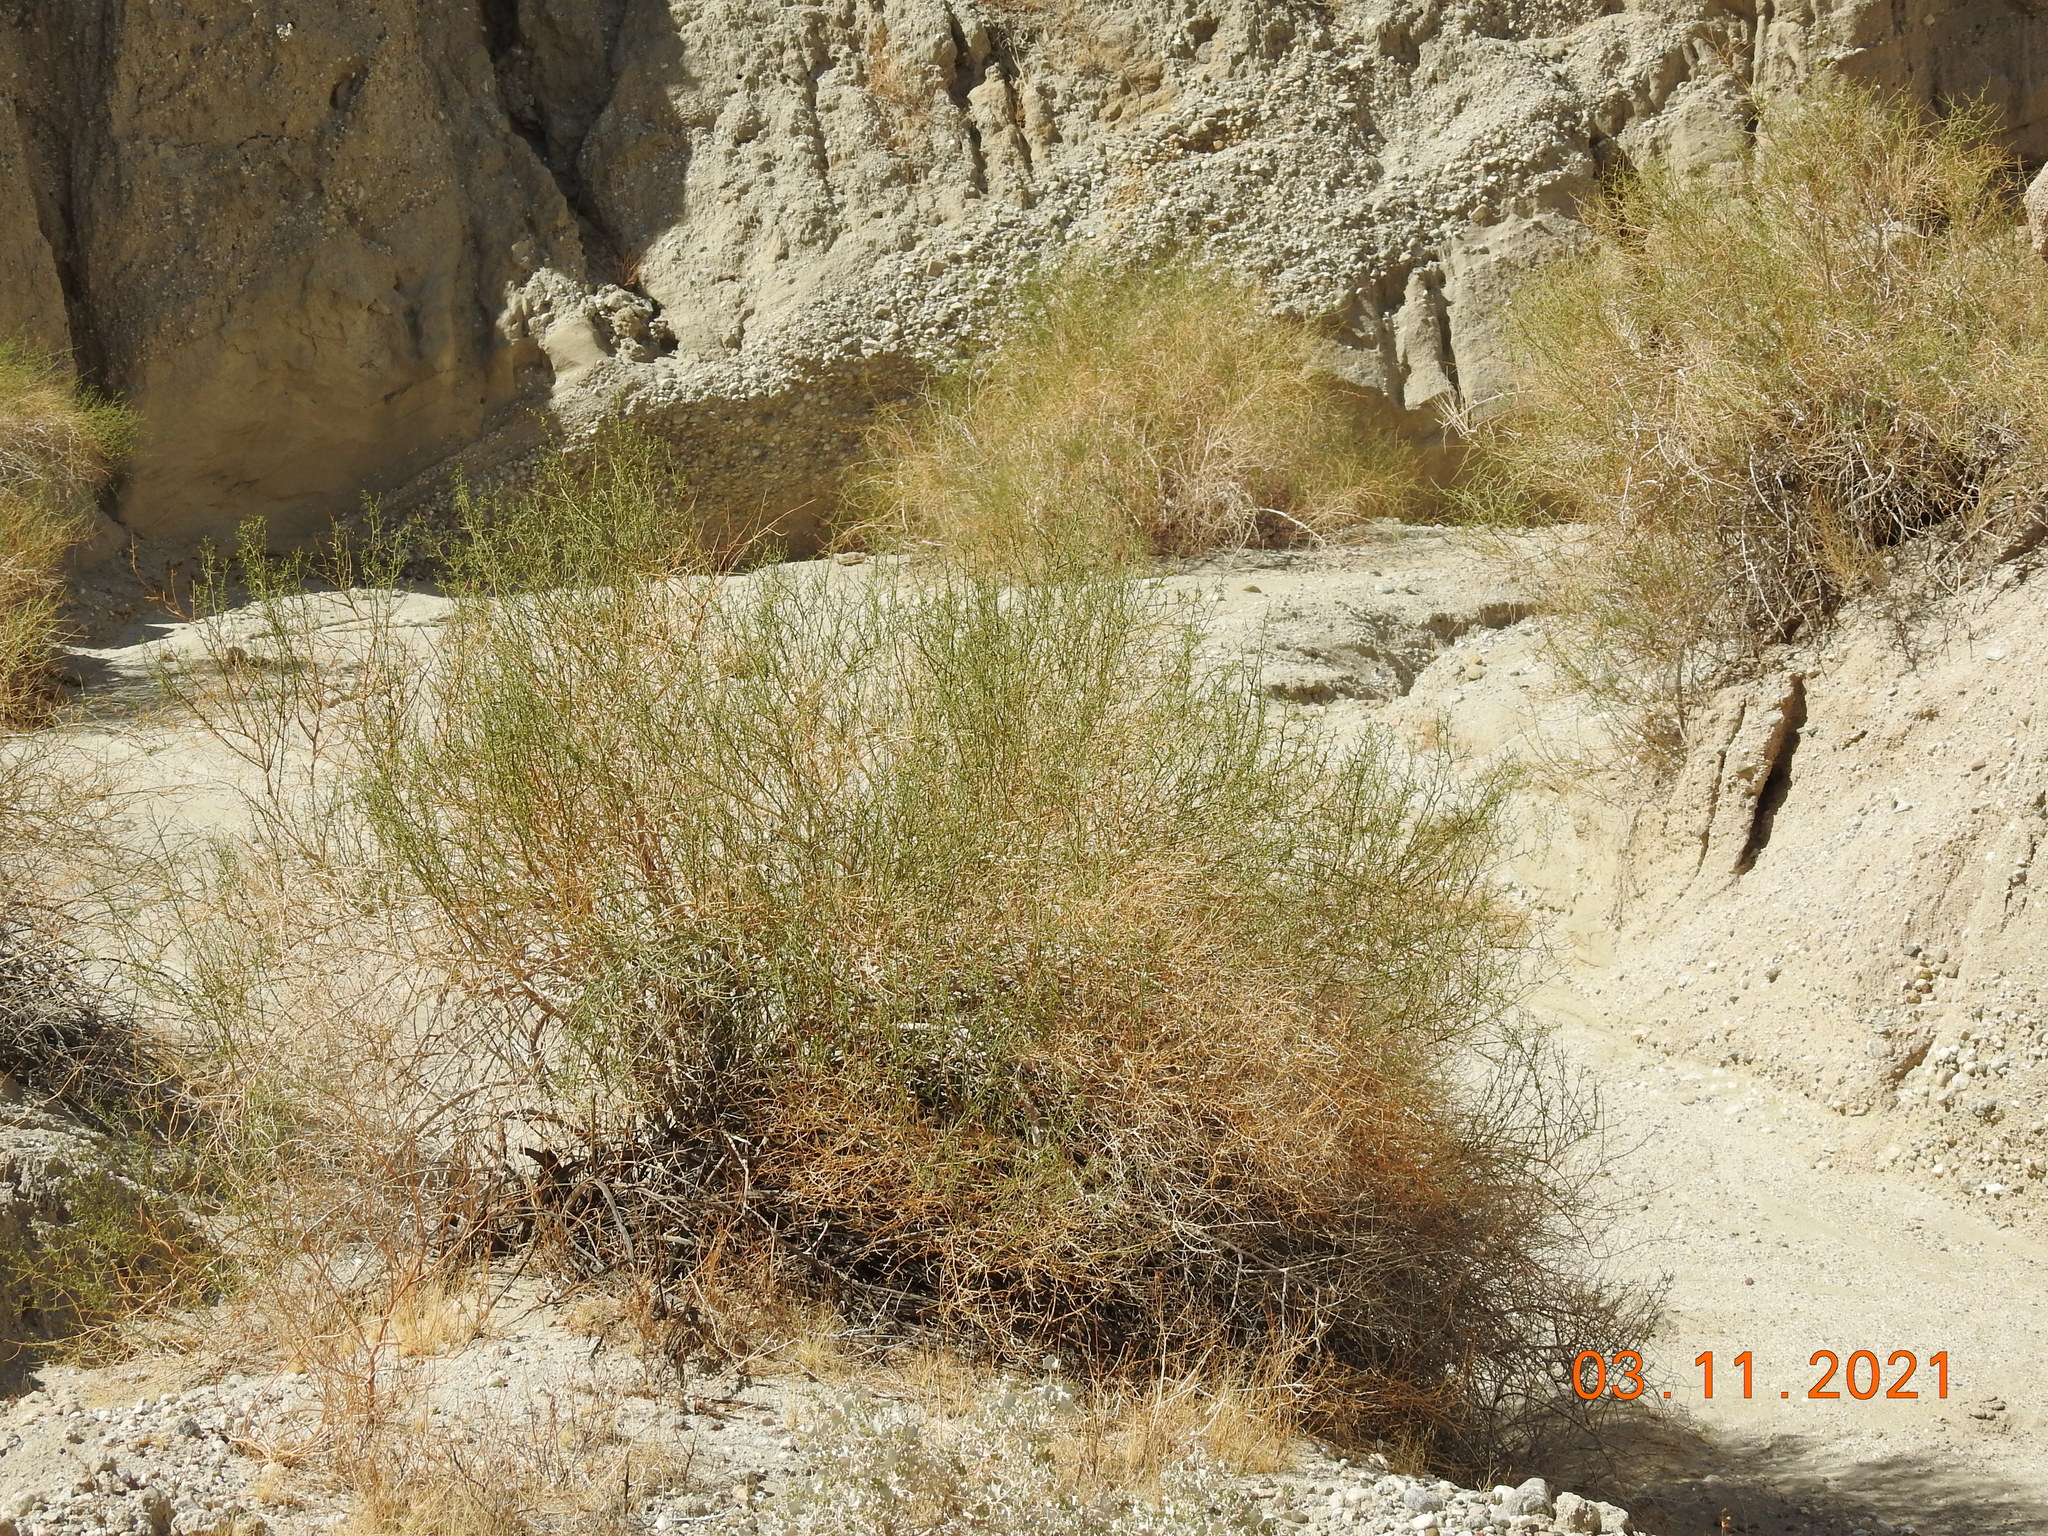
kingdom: Plantae
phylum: Tracheophyta
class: Magnoliopsida
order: Asterales
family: Asteraceae
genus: Ambrosia
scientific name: Ambrosia salsola
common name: Burrobrush
